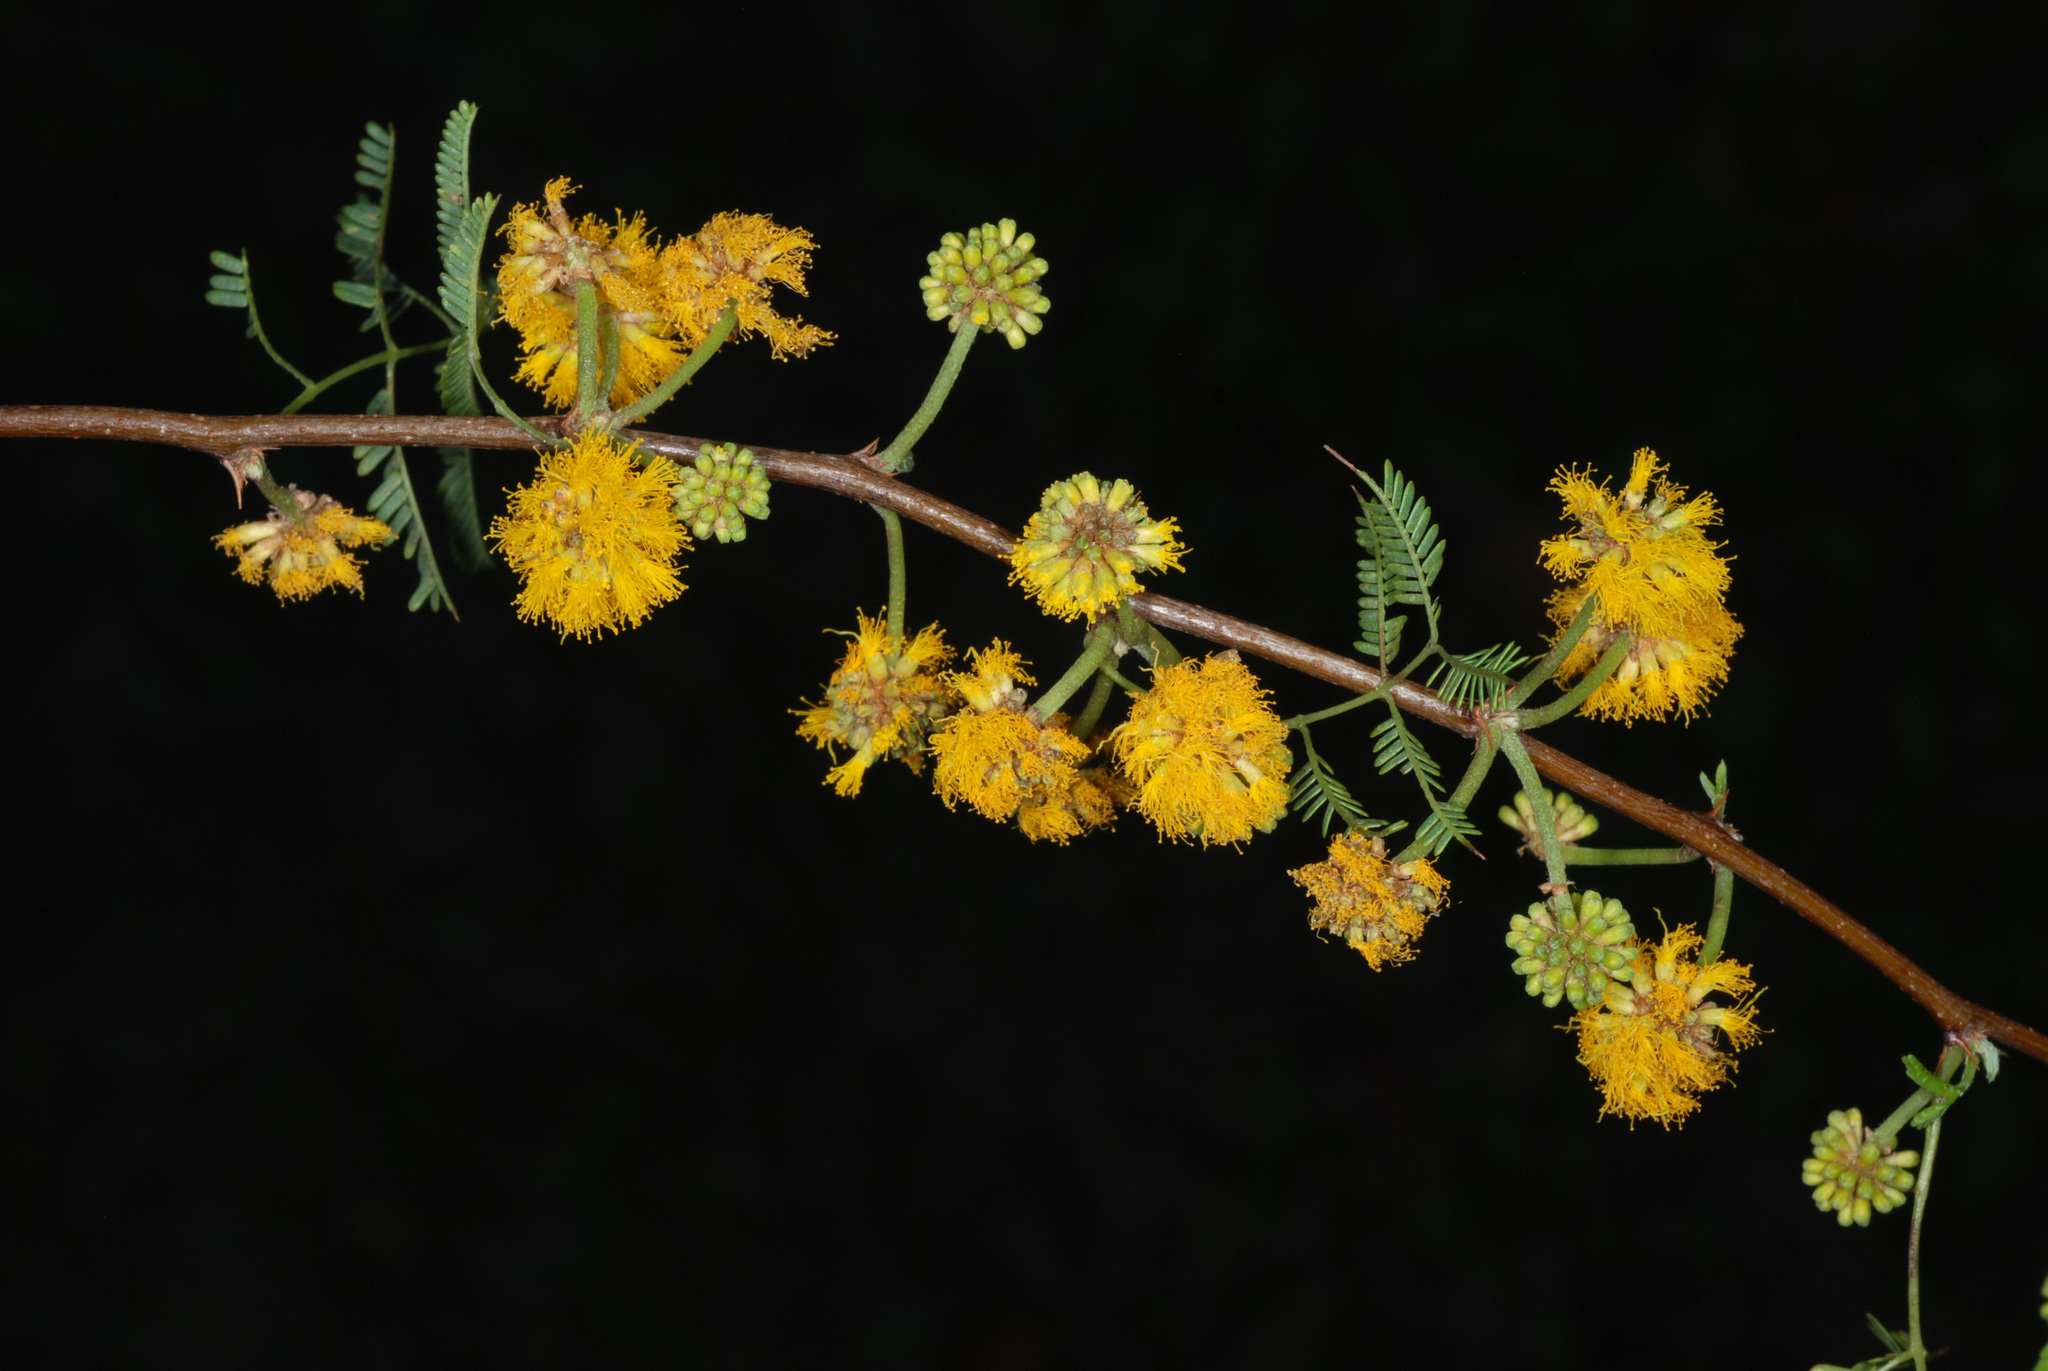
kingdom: Plantae
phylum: Tracheophyta
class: Magnoliopsida
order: Fabales
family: Fabaceae
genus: Vachellia
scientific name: Vachellia farnesiana
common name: Sweet acacia
